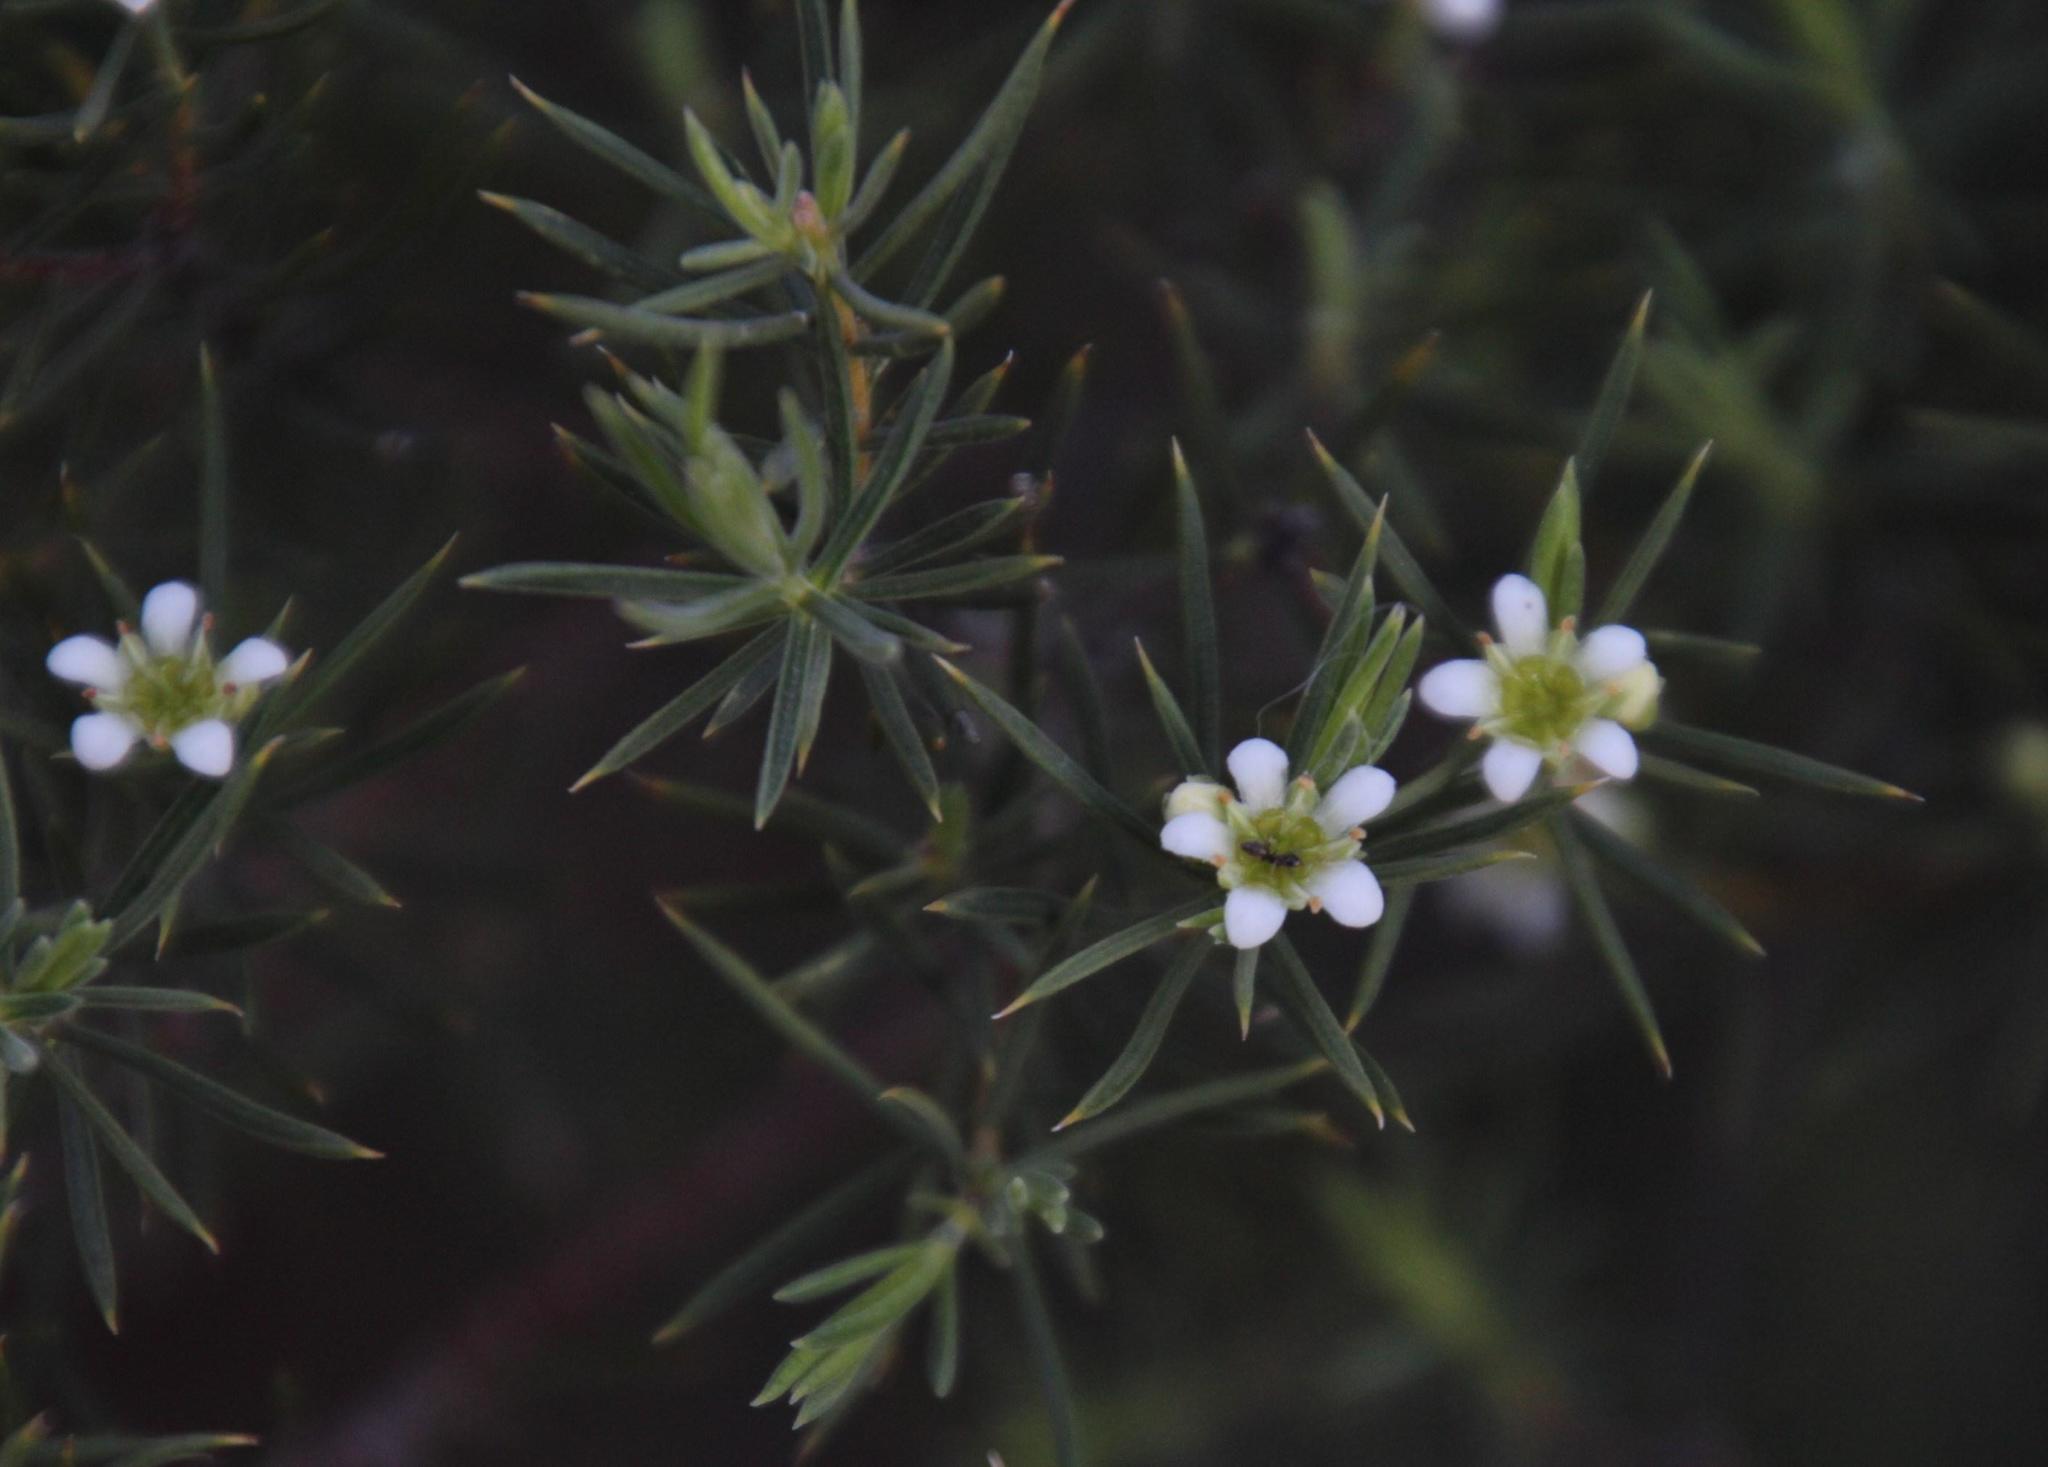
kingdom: Plantae
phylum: Tracheophyta
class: Magnoliopsida
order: Sapindales
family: Rutaceae
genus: Diosma
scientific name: Diosma acmaeophylla
